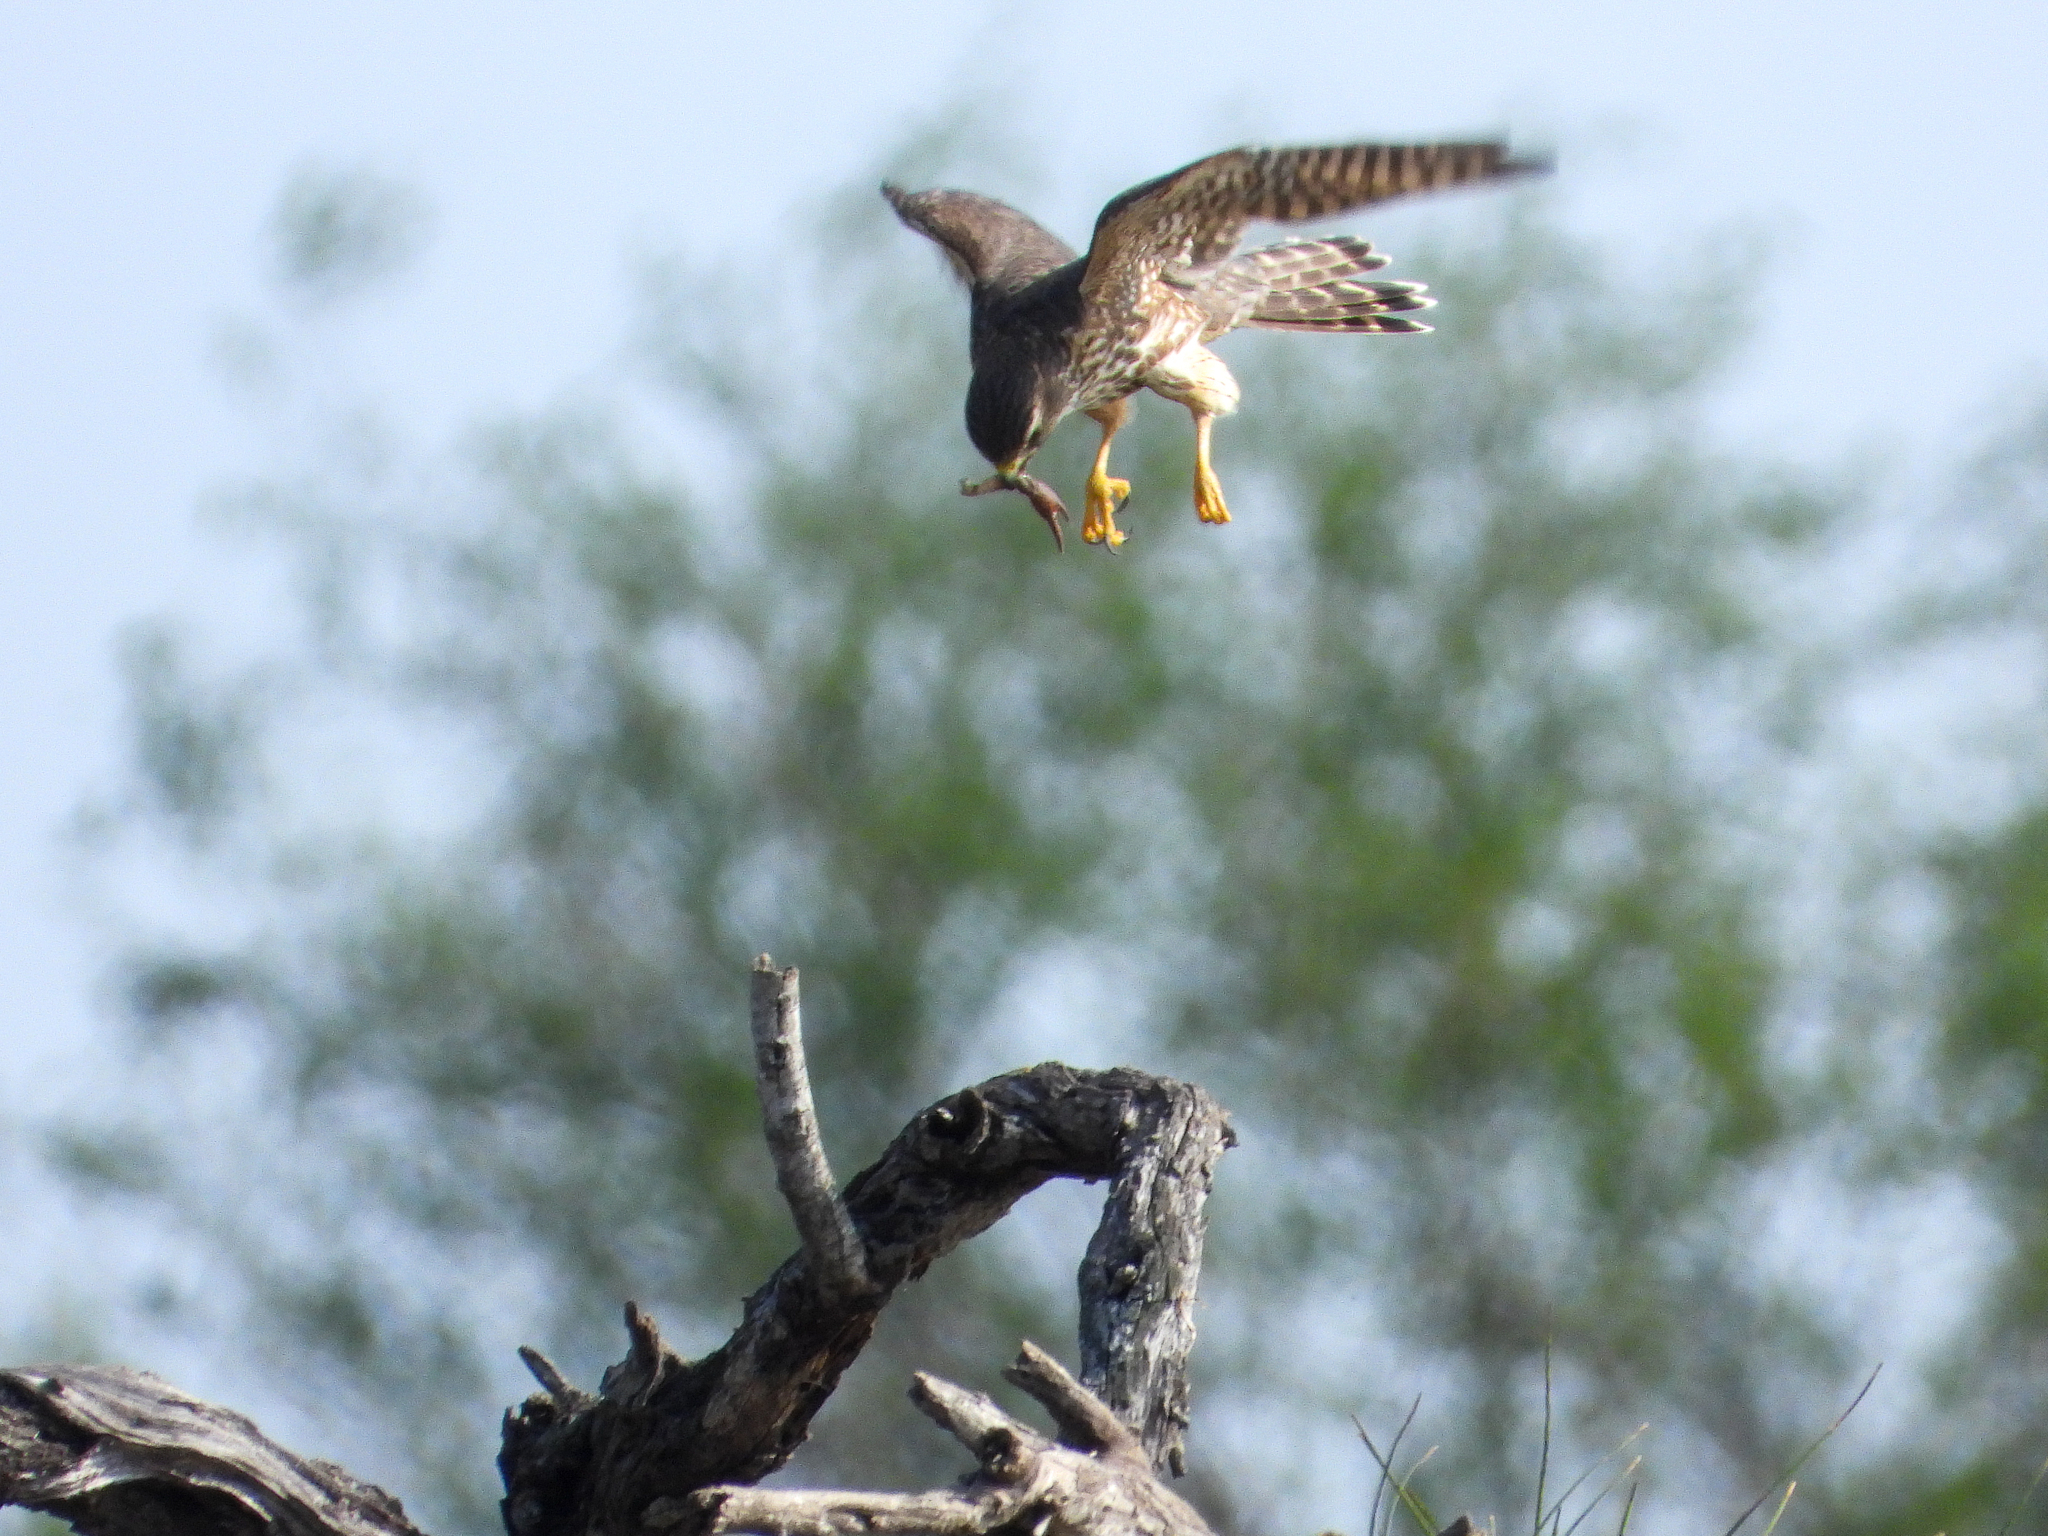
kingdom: Animalia
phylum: Chordata
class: Aves
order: Falconiformes
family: Falconidae
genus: Falco
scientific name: Falco columbarius
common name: Merlin
